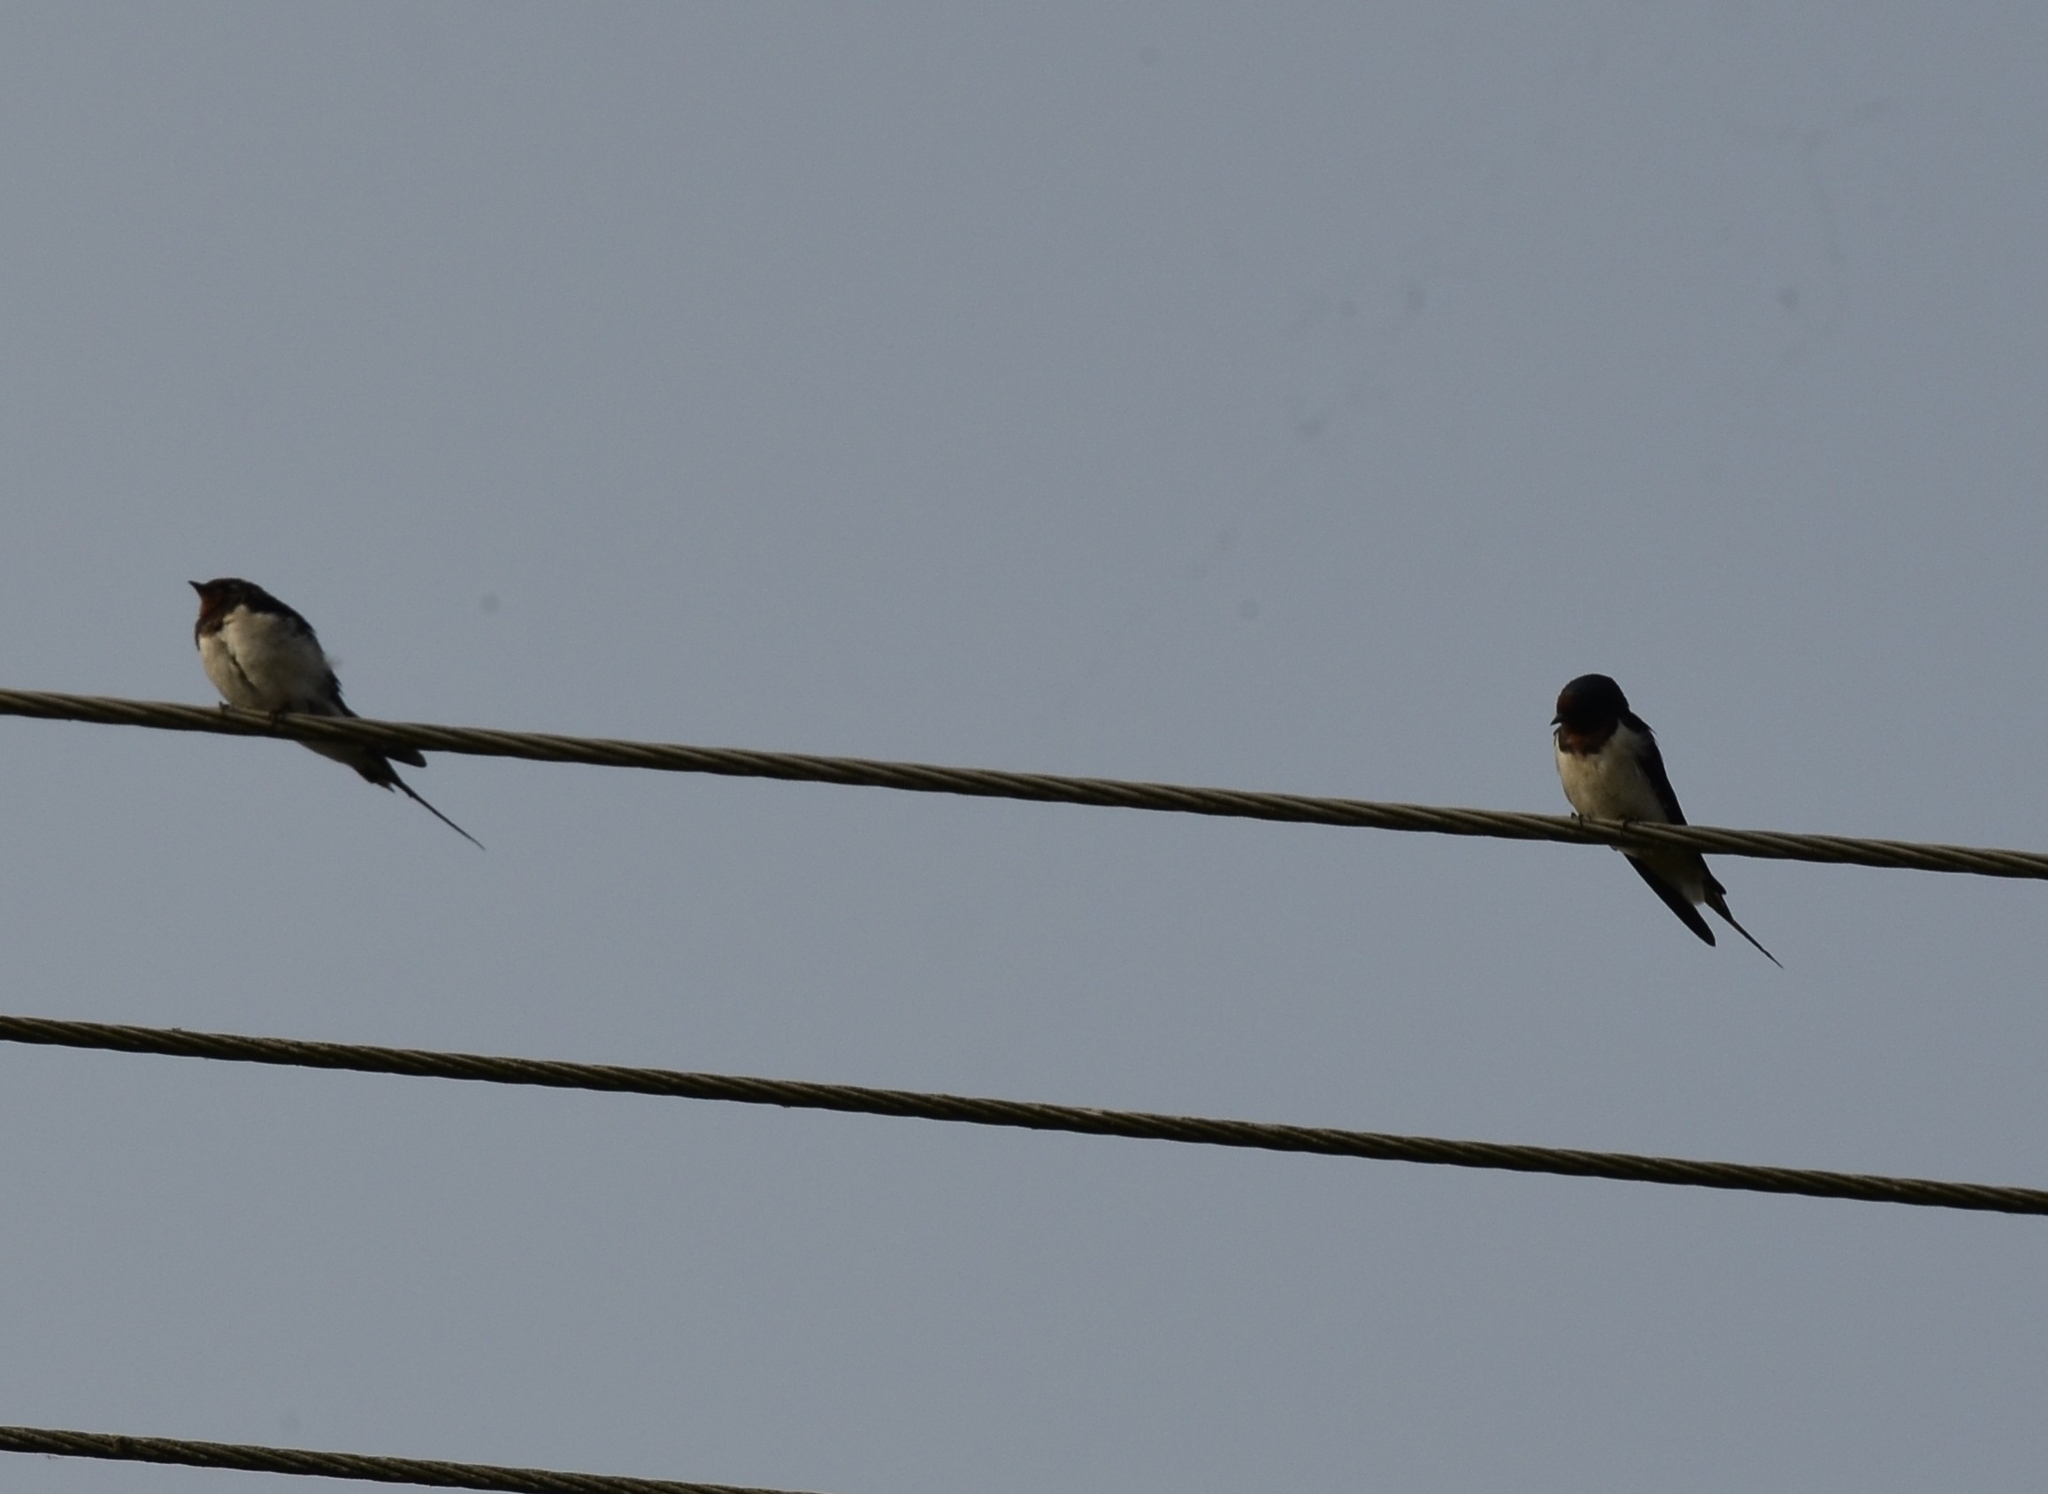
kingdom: Animalia
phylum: Chordata
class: Aves
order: Passeriformes
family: Hirundinidae
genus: Hirundo
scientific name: Hirundo rustica
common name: Barn swallow
